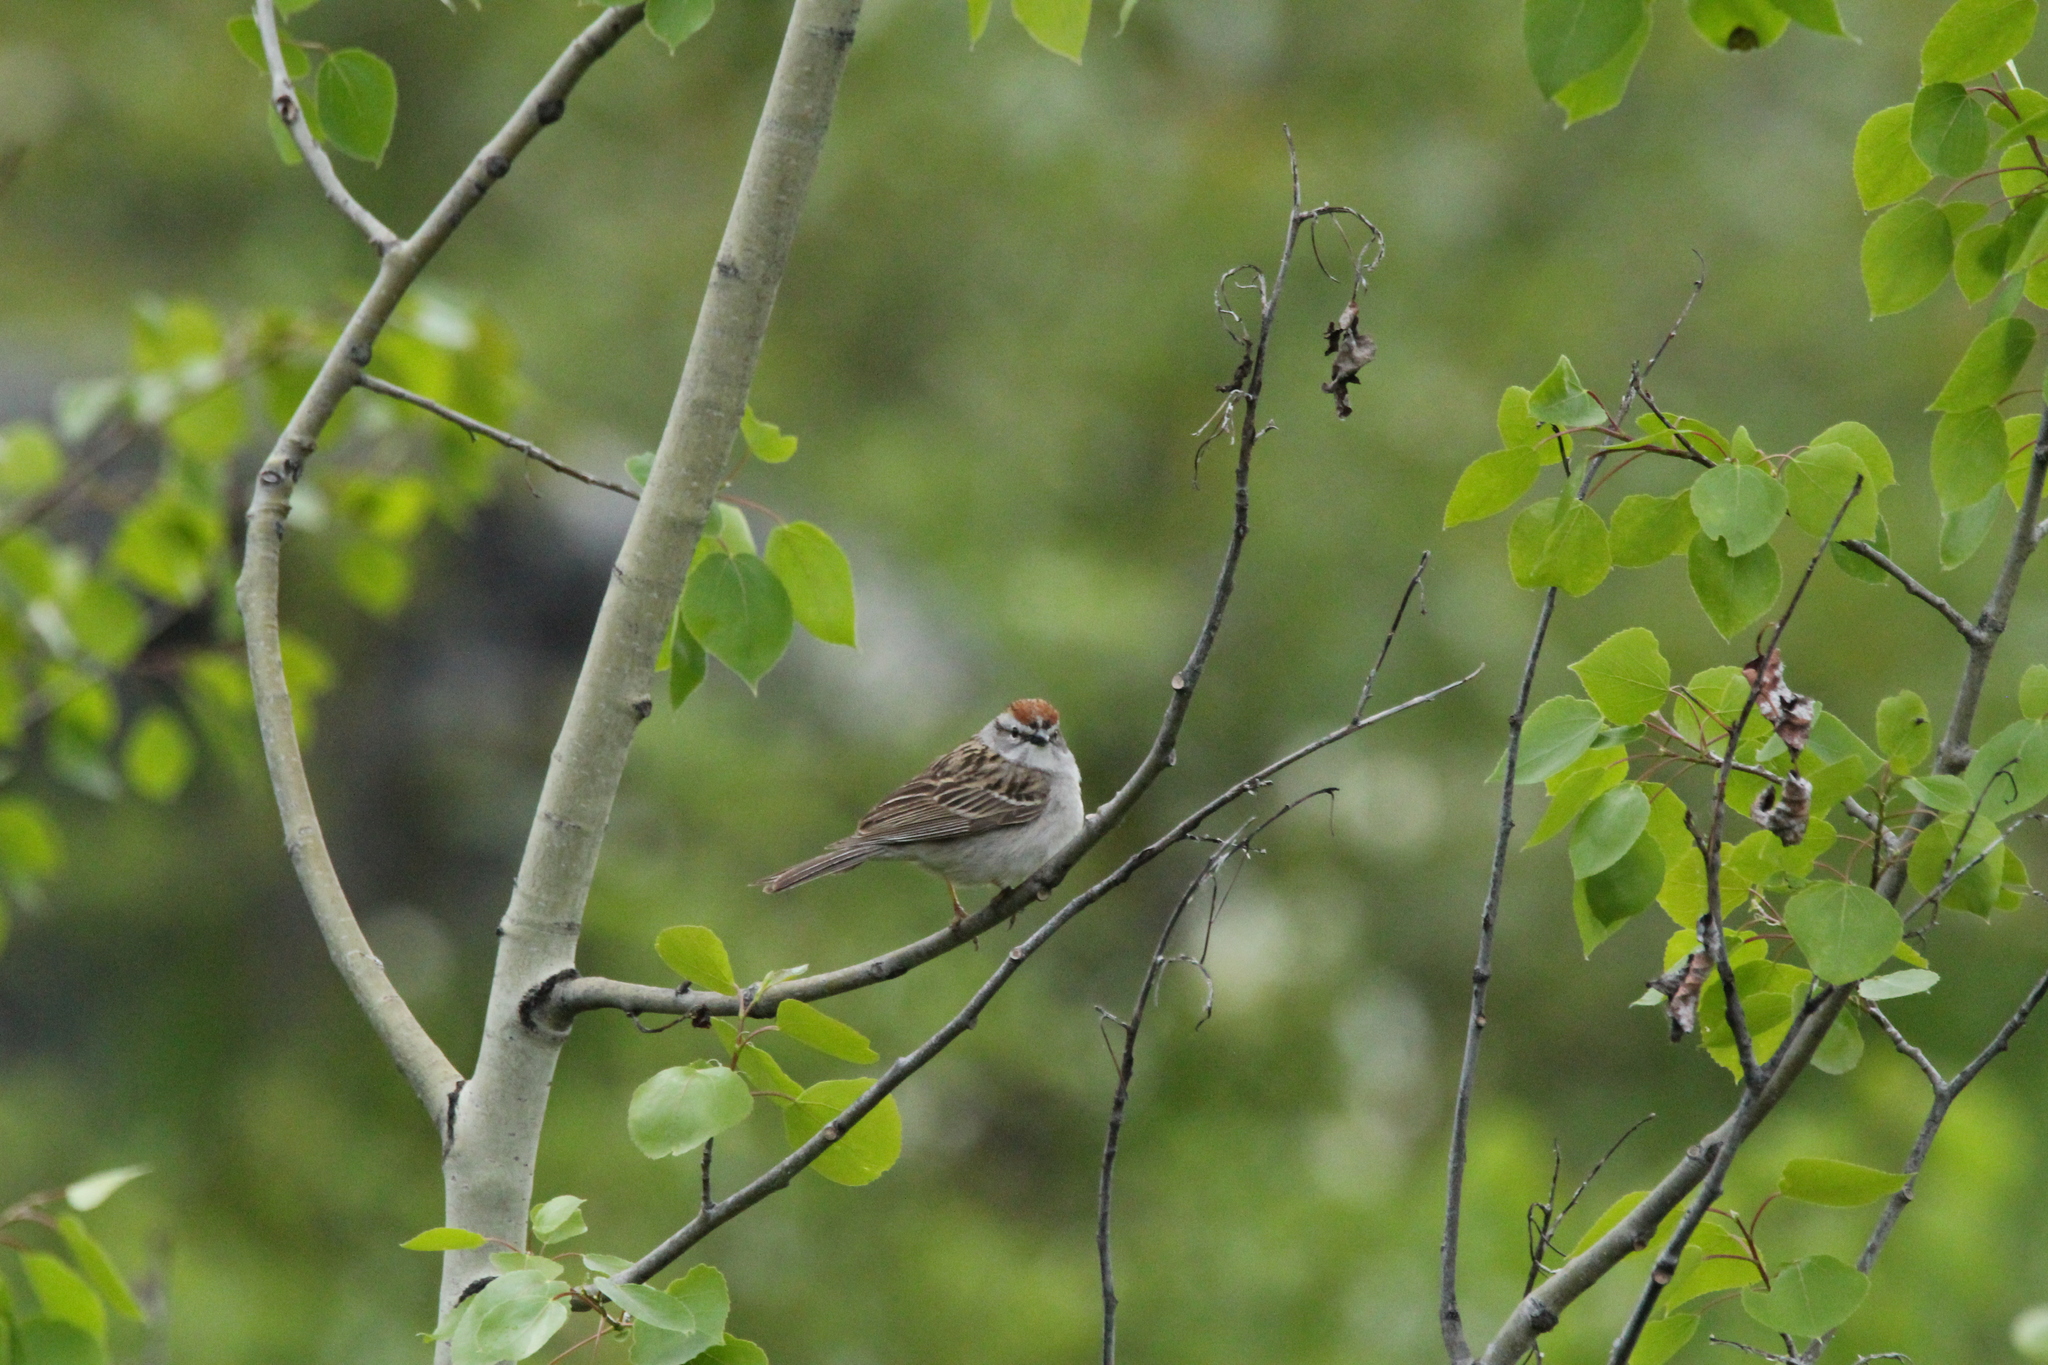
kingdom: Animalia
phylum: Chordata
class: Aves
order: Passeriformes
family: Passerellidae
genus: Spizella
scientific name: Spizella passerina
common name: Chipping sparrow
